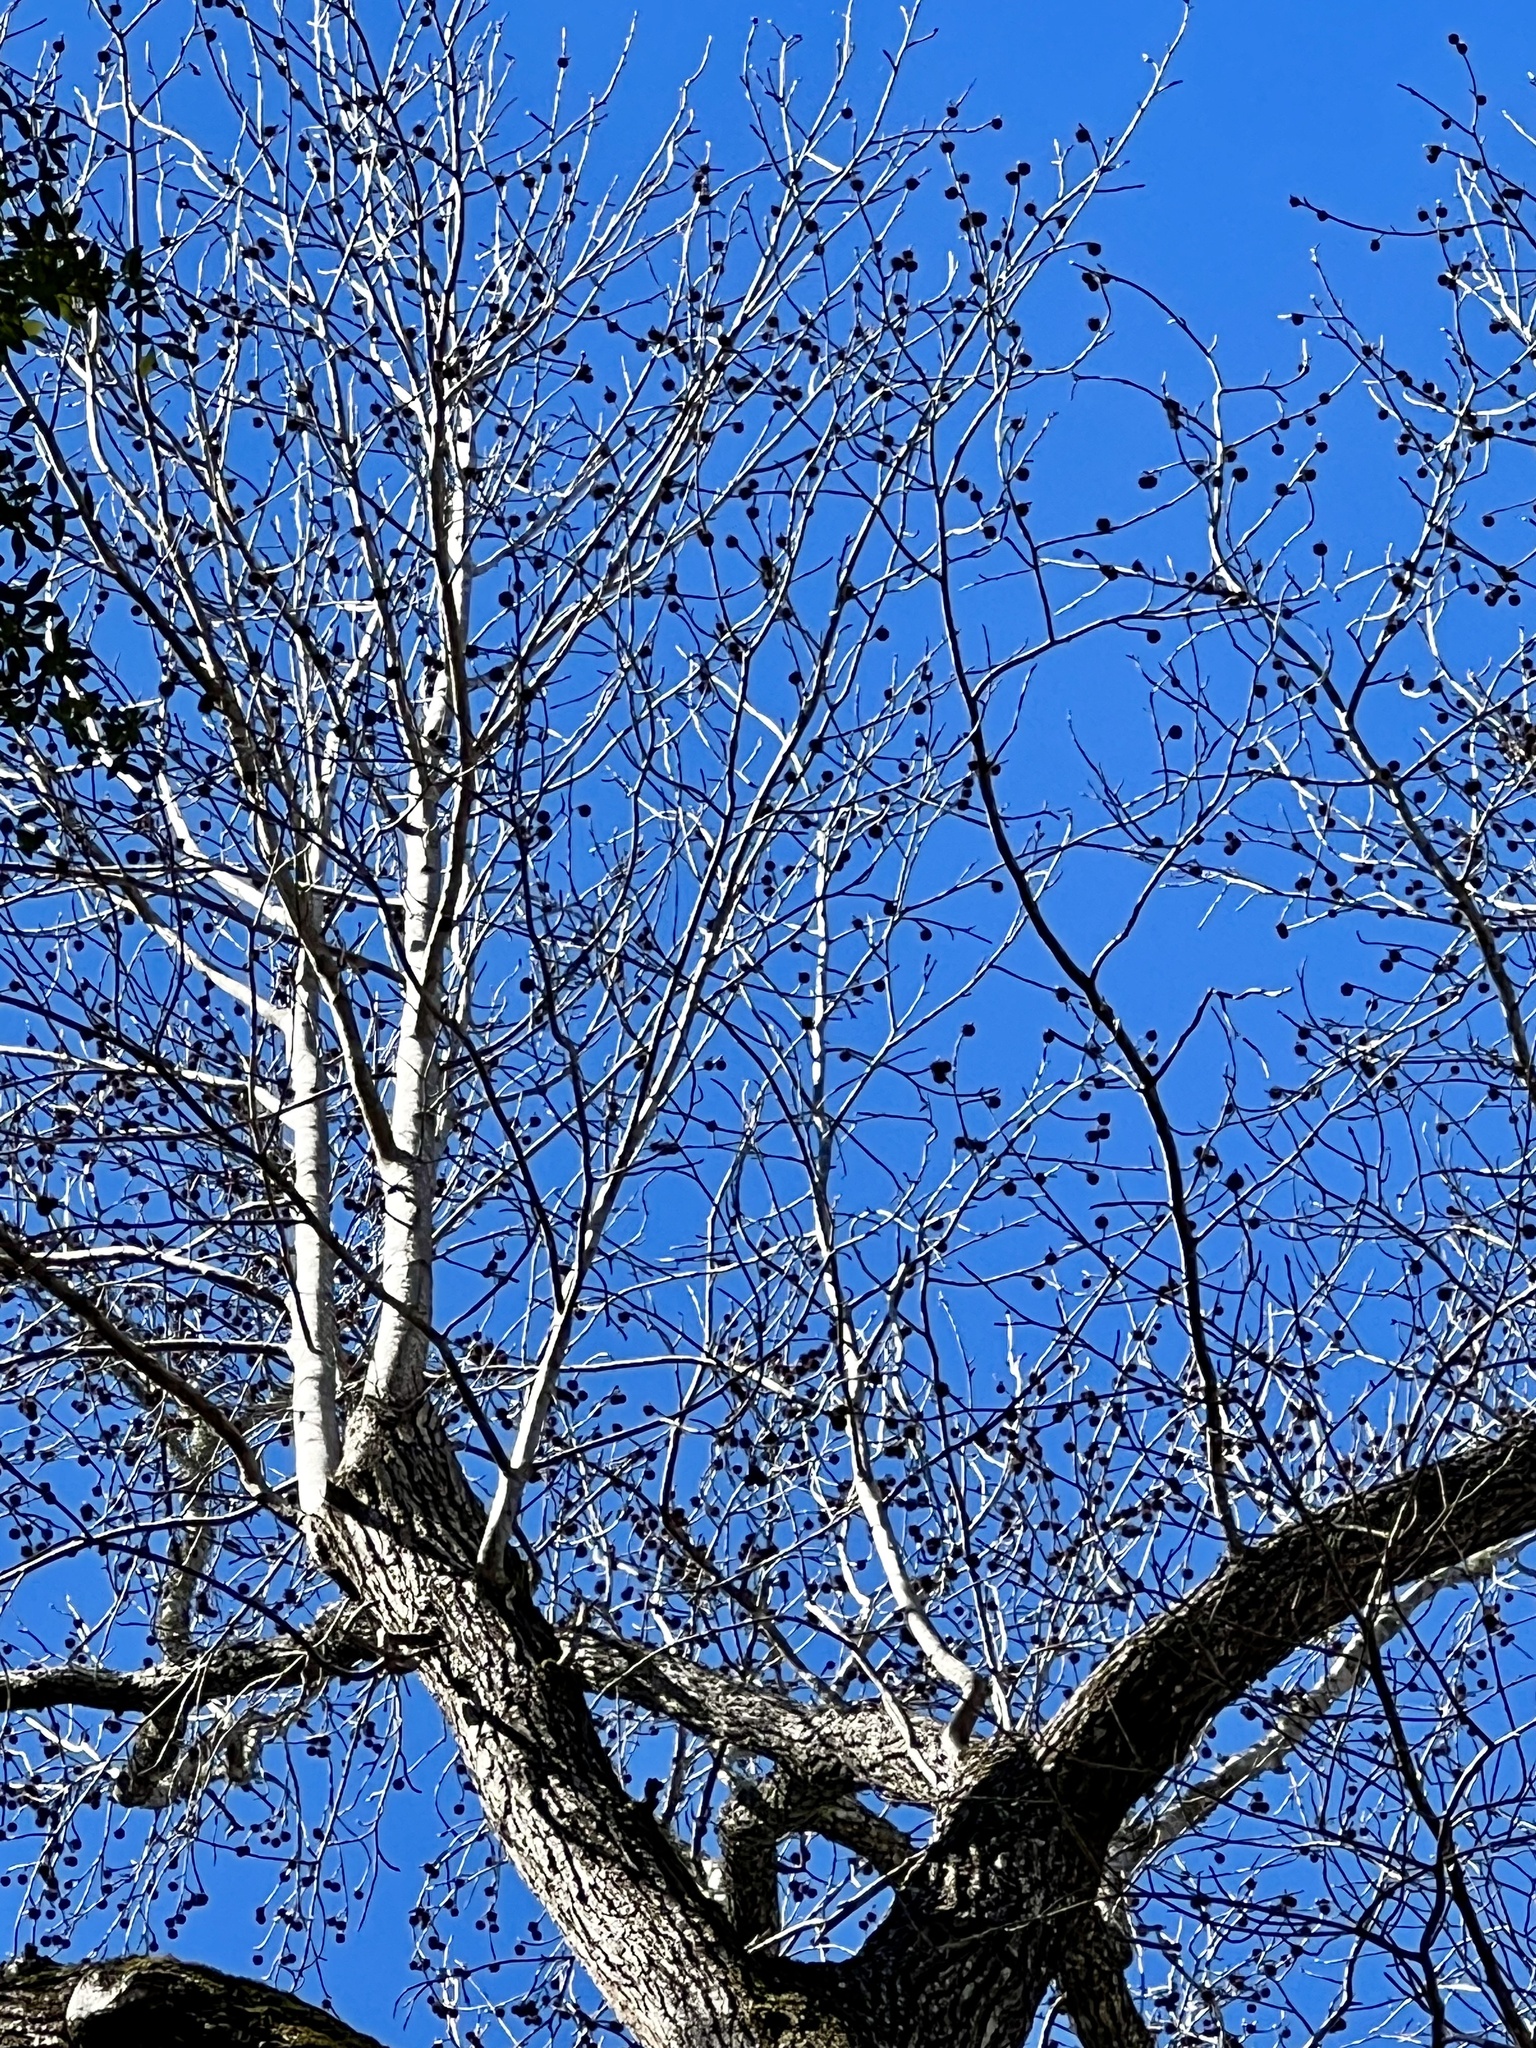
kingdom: Plantae
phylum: Tracheophyta
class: Magnoliopsida
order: Saxifragales
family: Altingiaceae
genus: Liquidambar
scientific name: Liquidambar styraciflua
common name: Sweet gum
